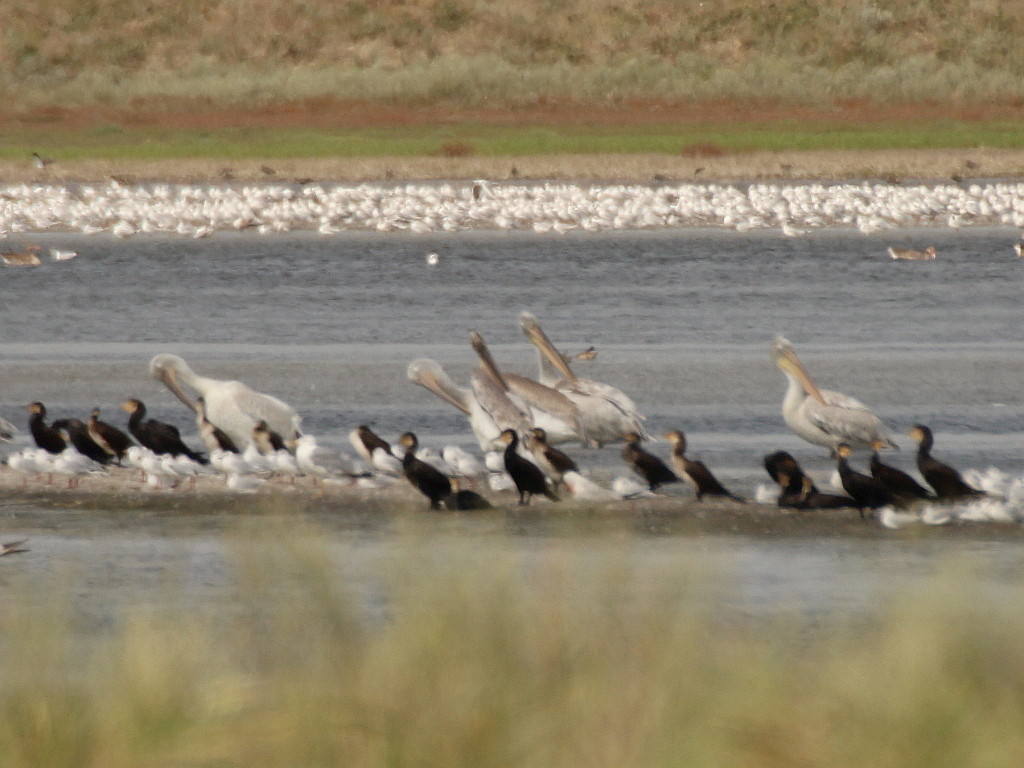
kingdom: Animalia
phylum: Chordata
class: Aves
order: Suliformes
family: Phalacrocoracidae
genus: Phalacrocorax
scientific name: Phalacrocorax carbo
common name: Great cormorant
